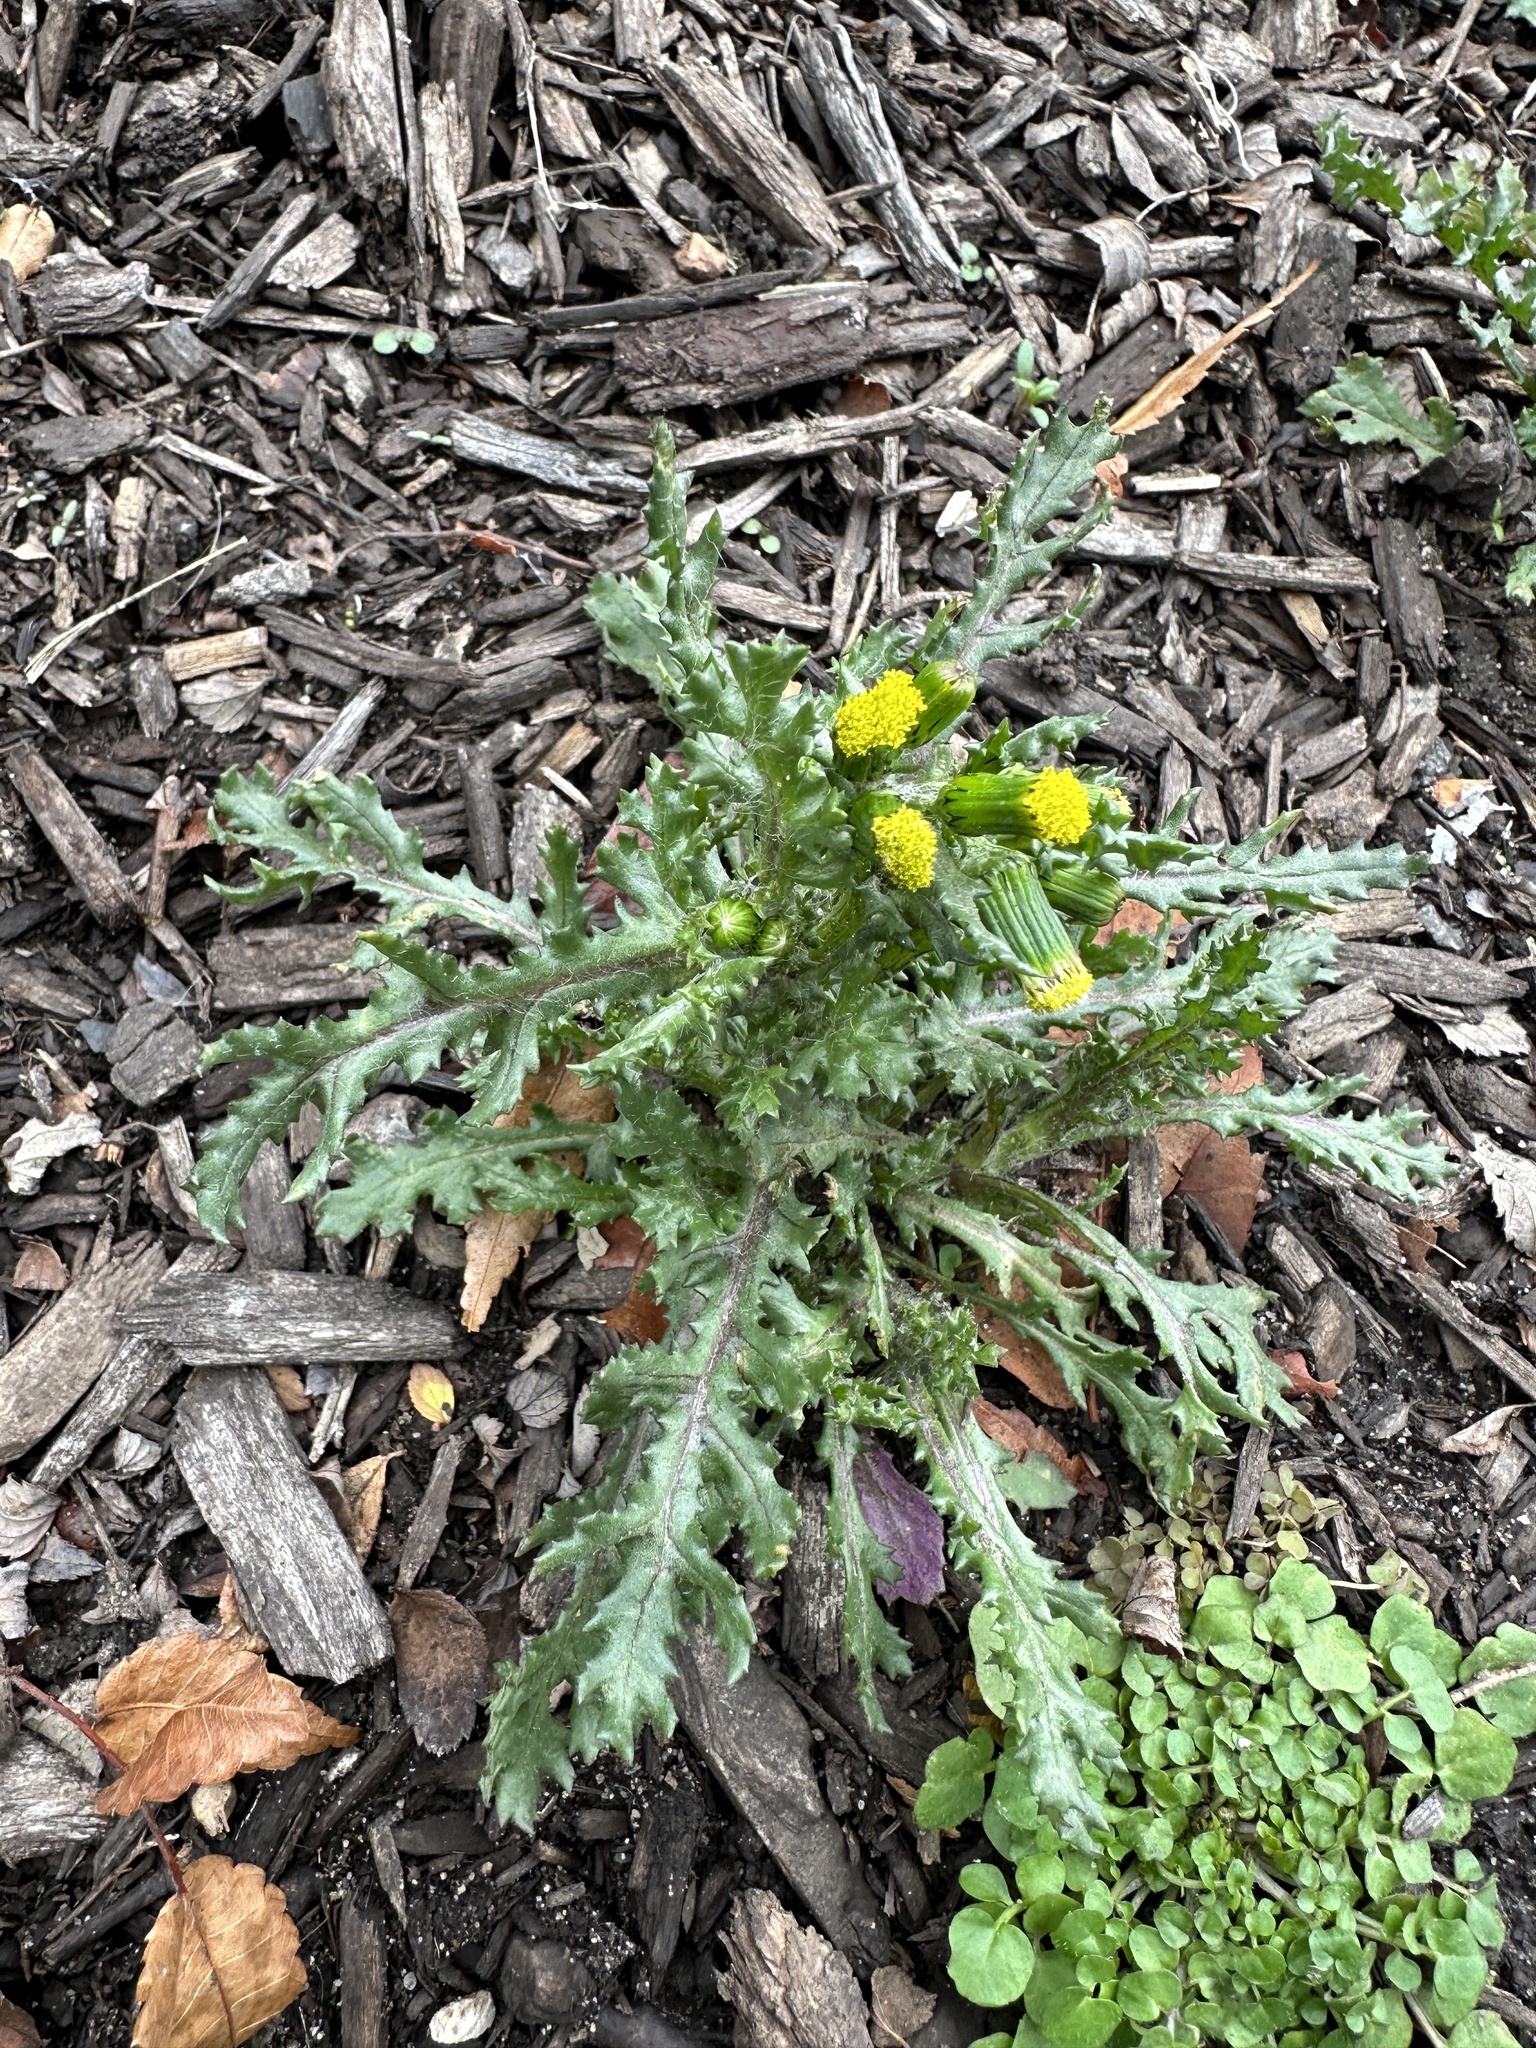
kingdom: Plantae
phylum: Tracheophyta
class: Magnoliopsida
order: Asterales
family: Asteraceae
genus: Senecio
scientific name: Senecio vulgaris
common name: Old-man-in-the-spring
